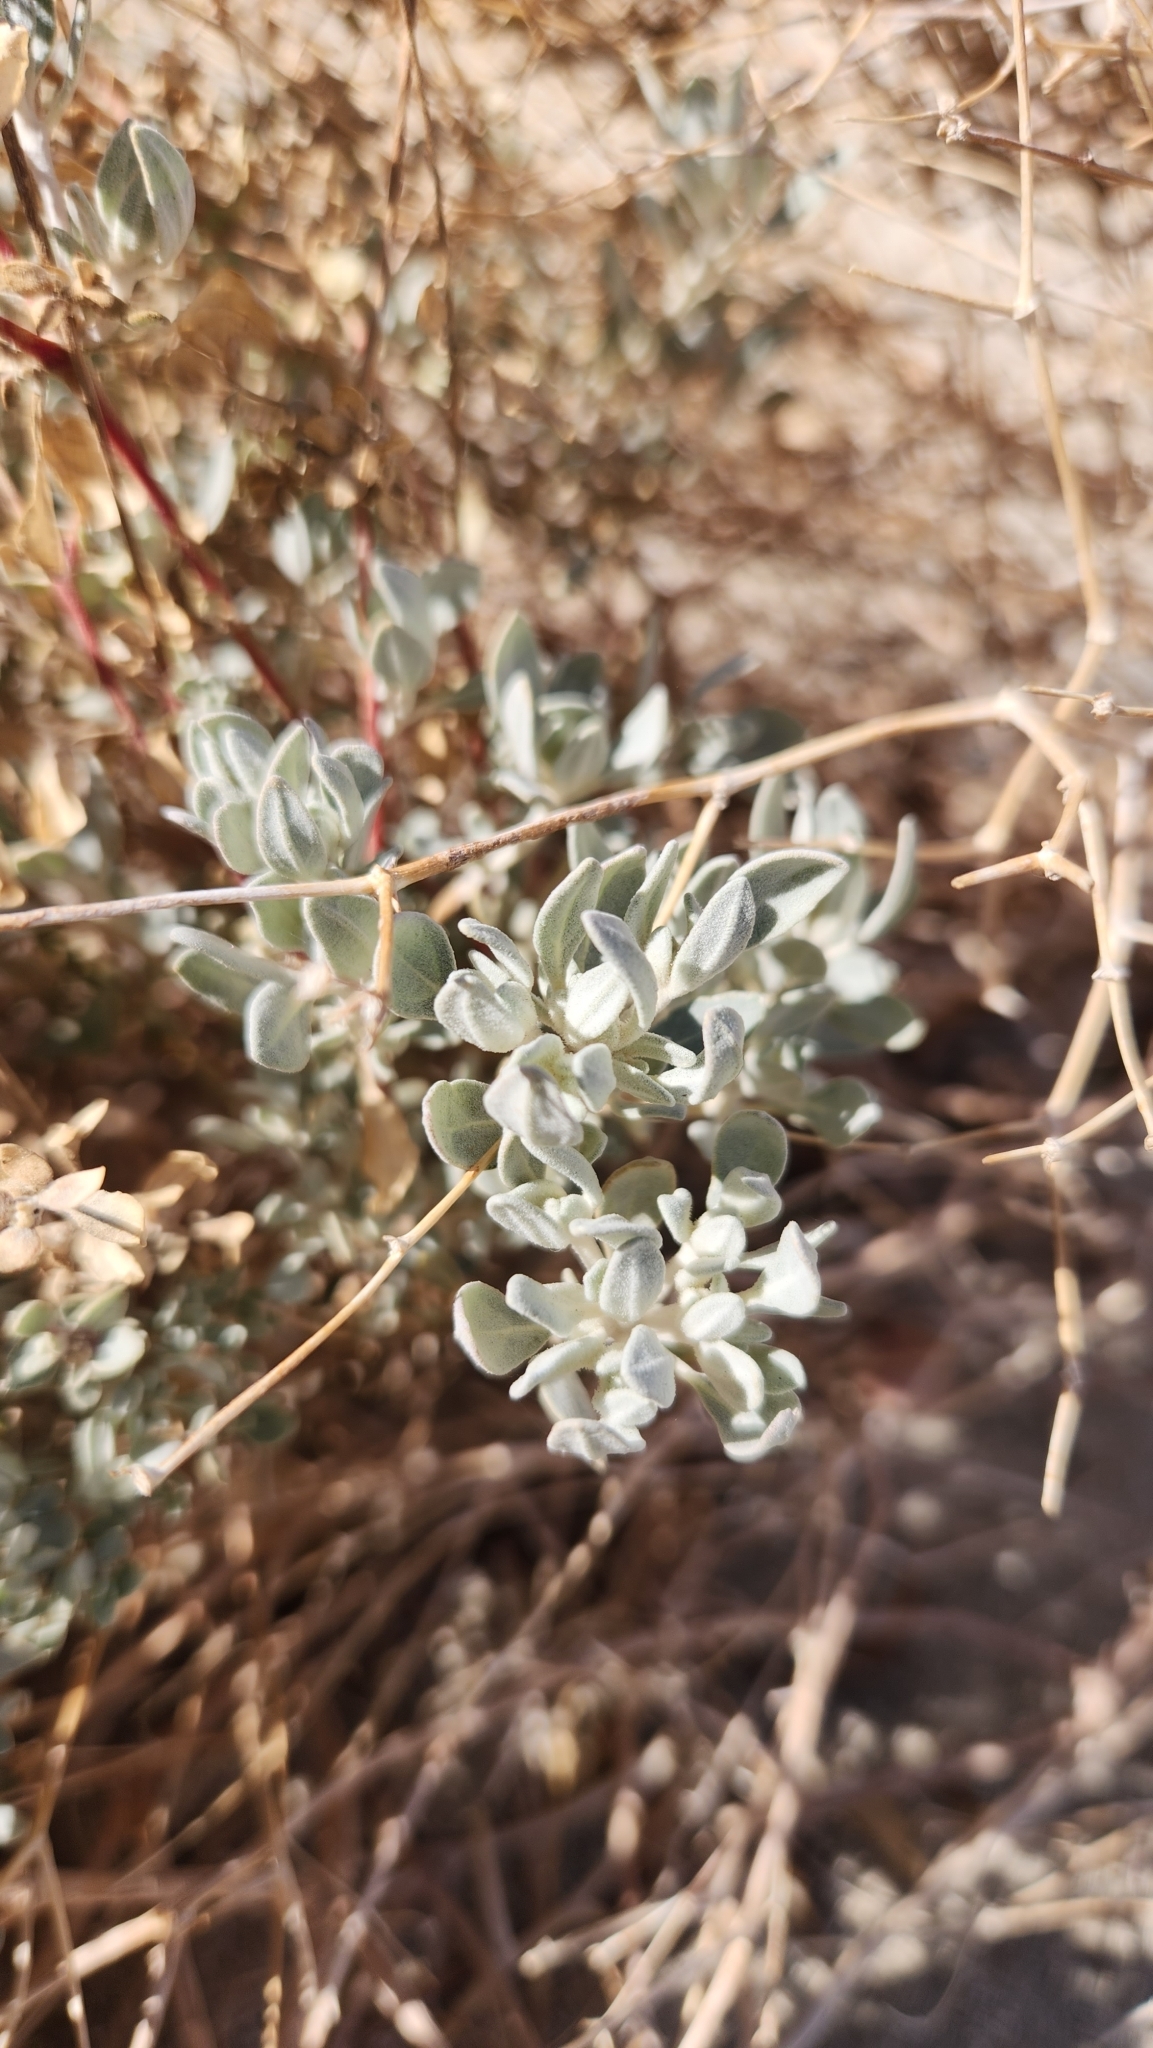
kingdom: Plantae
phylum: Tracheophyta
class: Magnoliopsida
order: Caryophyllales
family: Amaranthaceae
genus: Tidestromia
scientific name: Tidestromia suffruticosa
